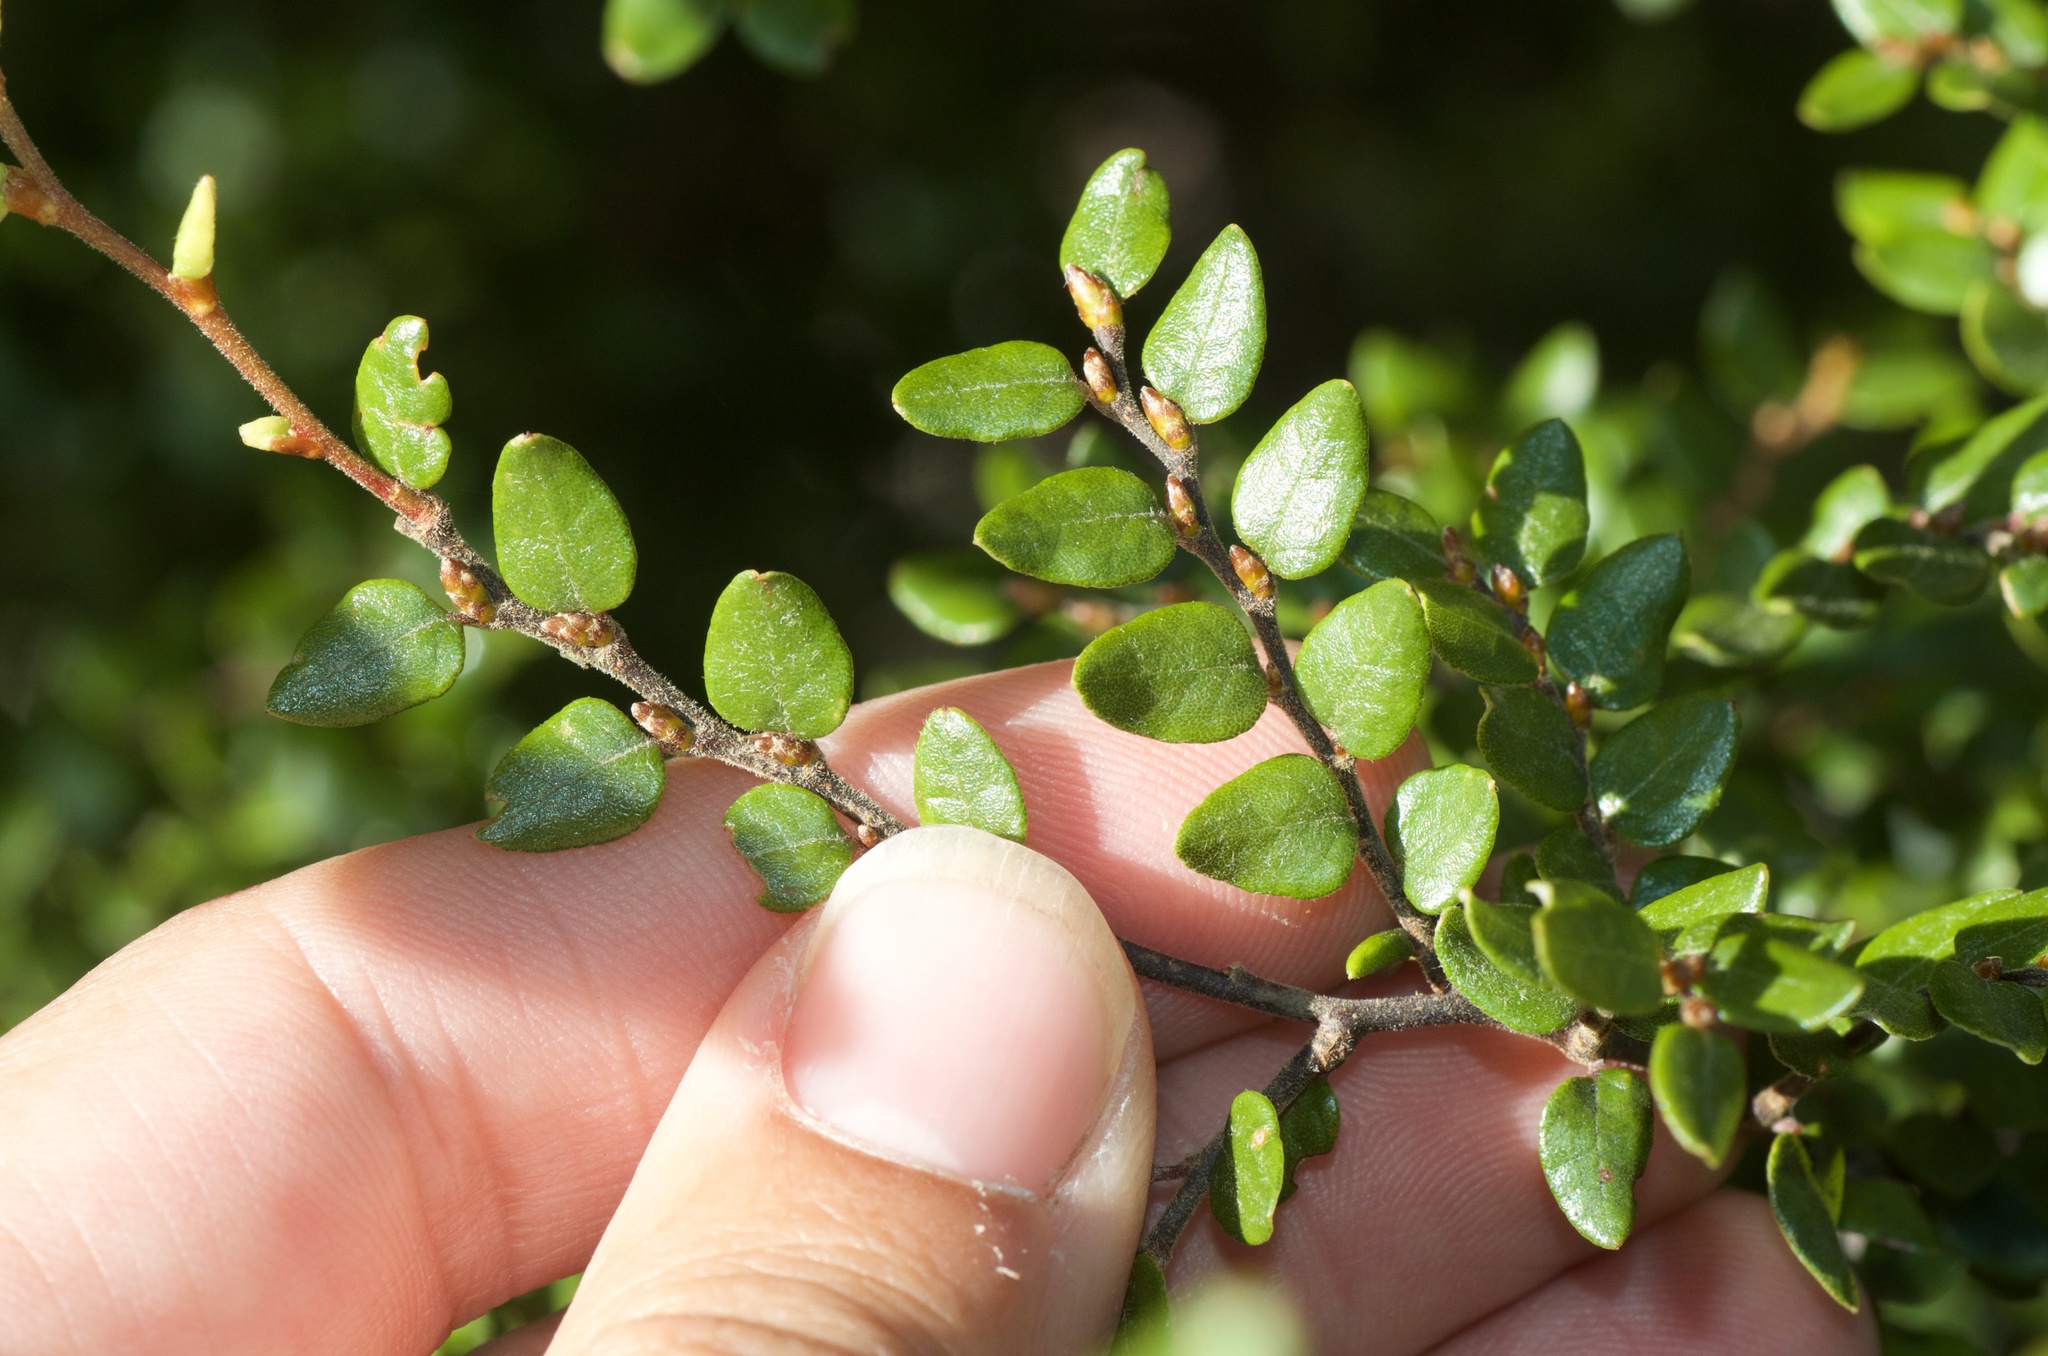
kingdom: Plantae
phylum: Tracheophyta
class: Magnoliopsida
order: Fagales
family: Nothofagaceae
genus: Nothofagus
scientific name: Nothofagus cliffortioides
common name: Mountain beech
